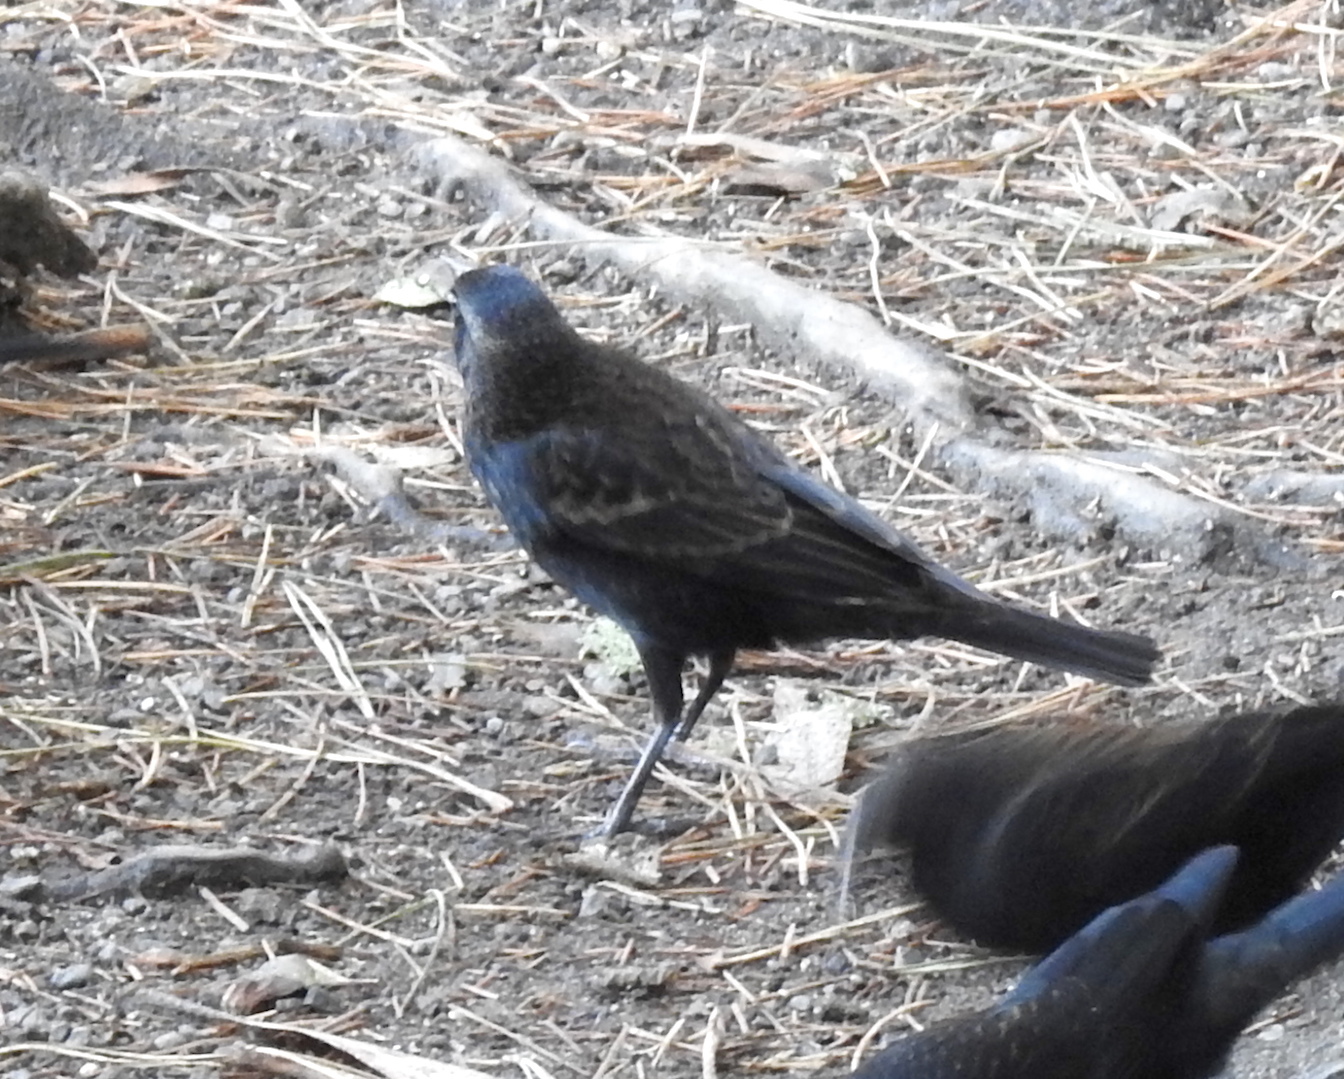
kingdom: Animalia
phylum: Chordata
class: Aves
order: Passeriformes
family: Icteridae
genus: Agelaius
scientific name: Agelaius tricolor
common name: Tricolored blackbird
